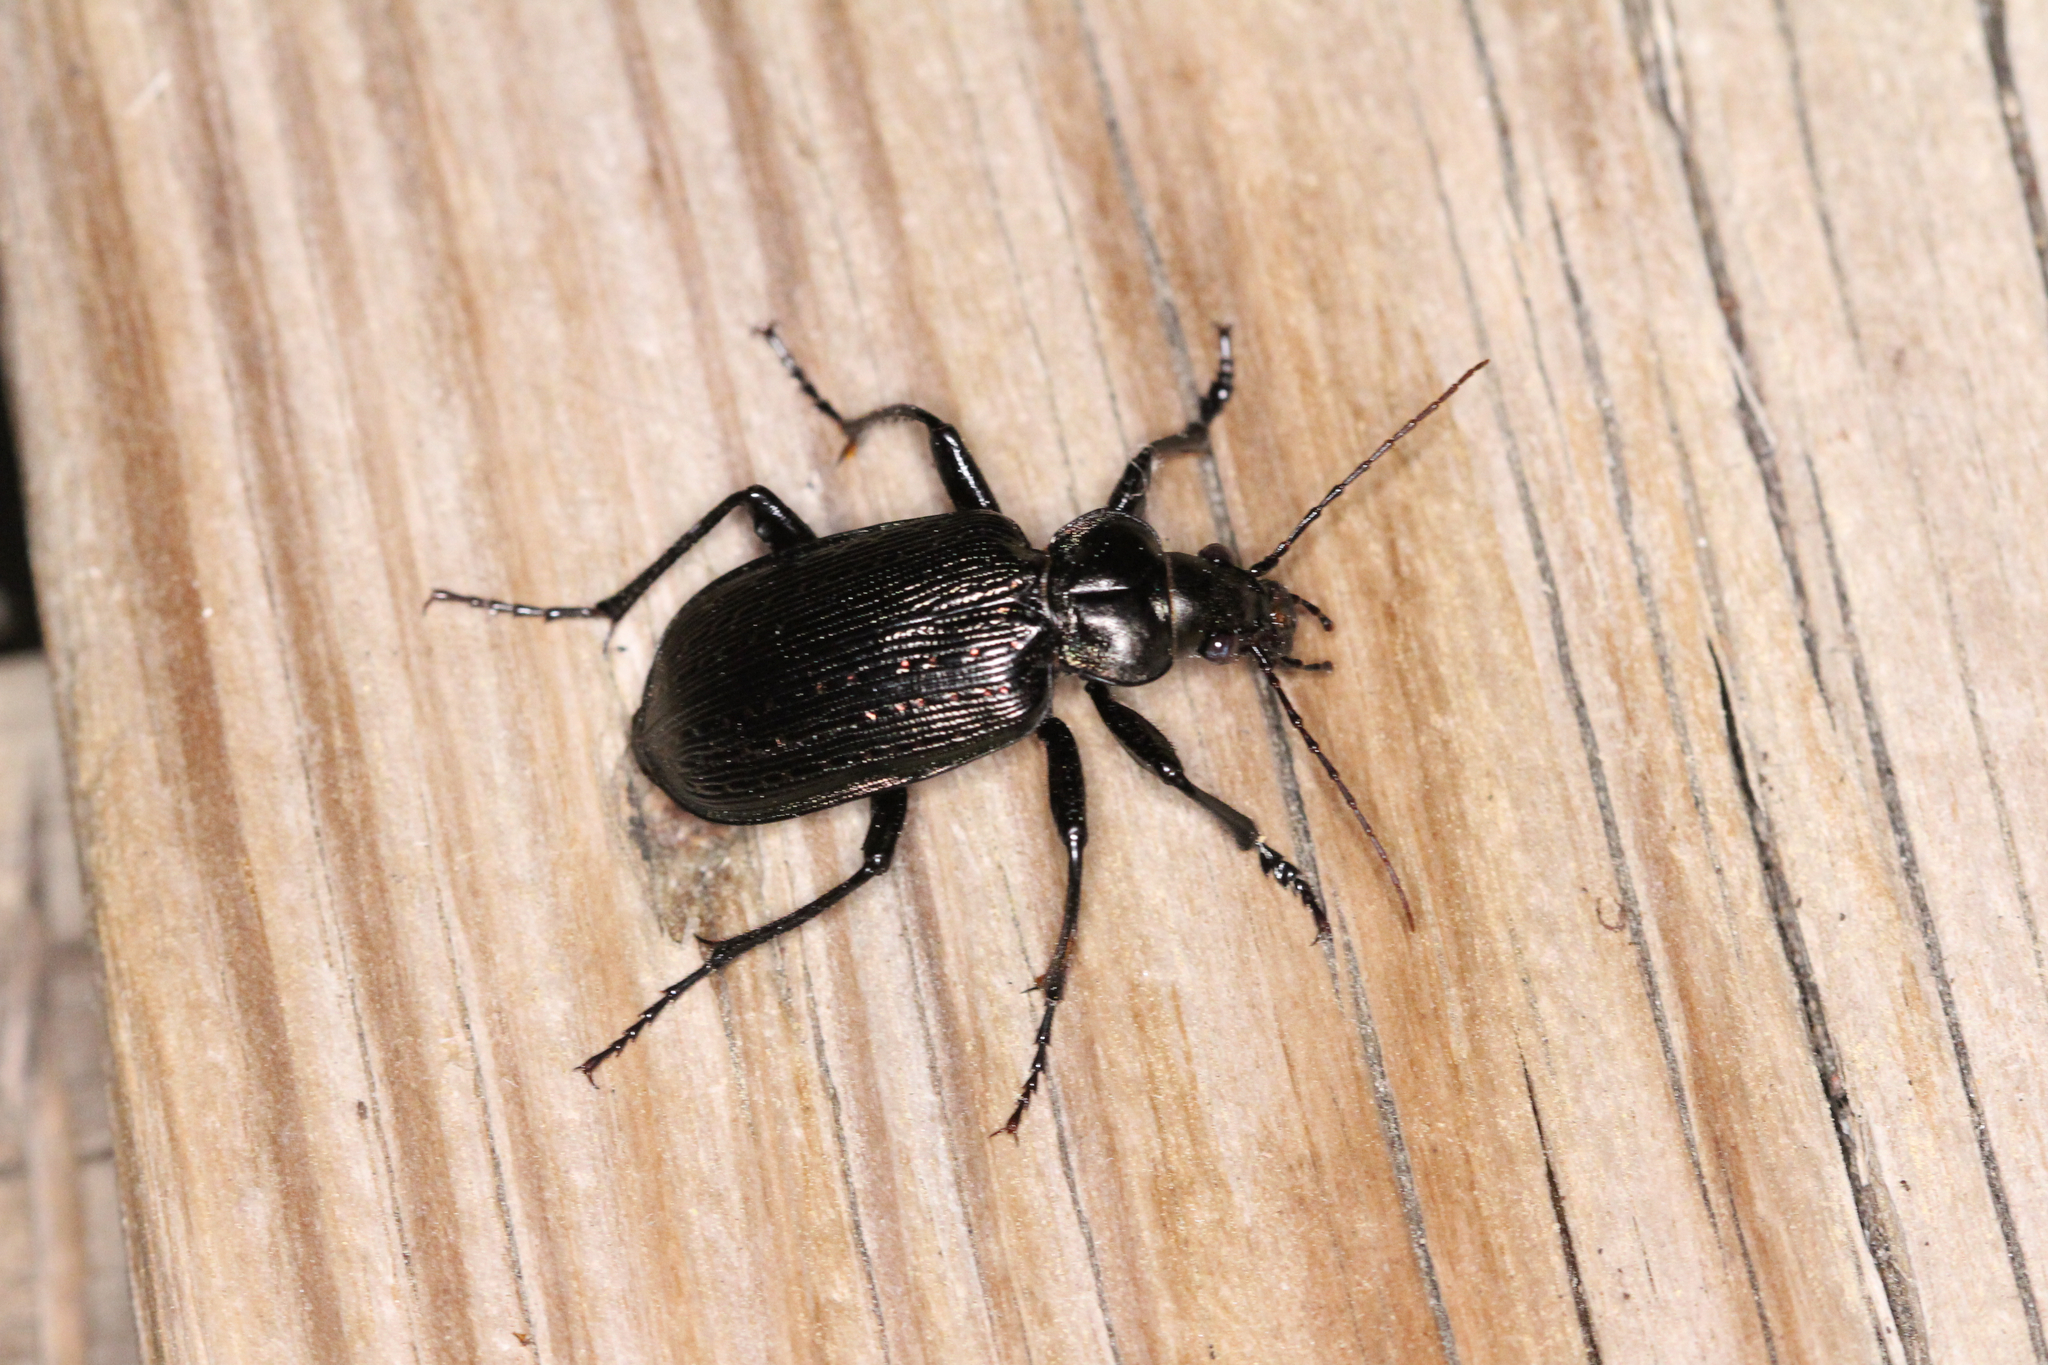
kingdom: Animalia
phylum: Arthropoda
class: Insecta
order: Coleoptera
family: Carabidae
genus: Calosoma
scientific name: Calosoma sayi
